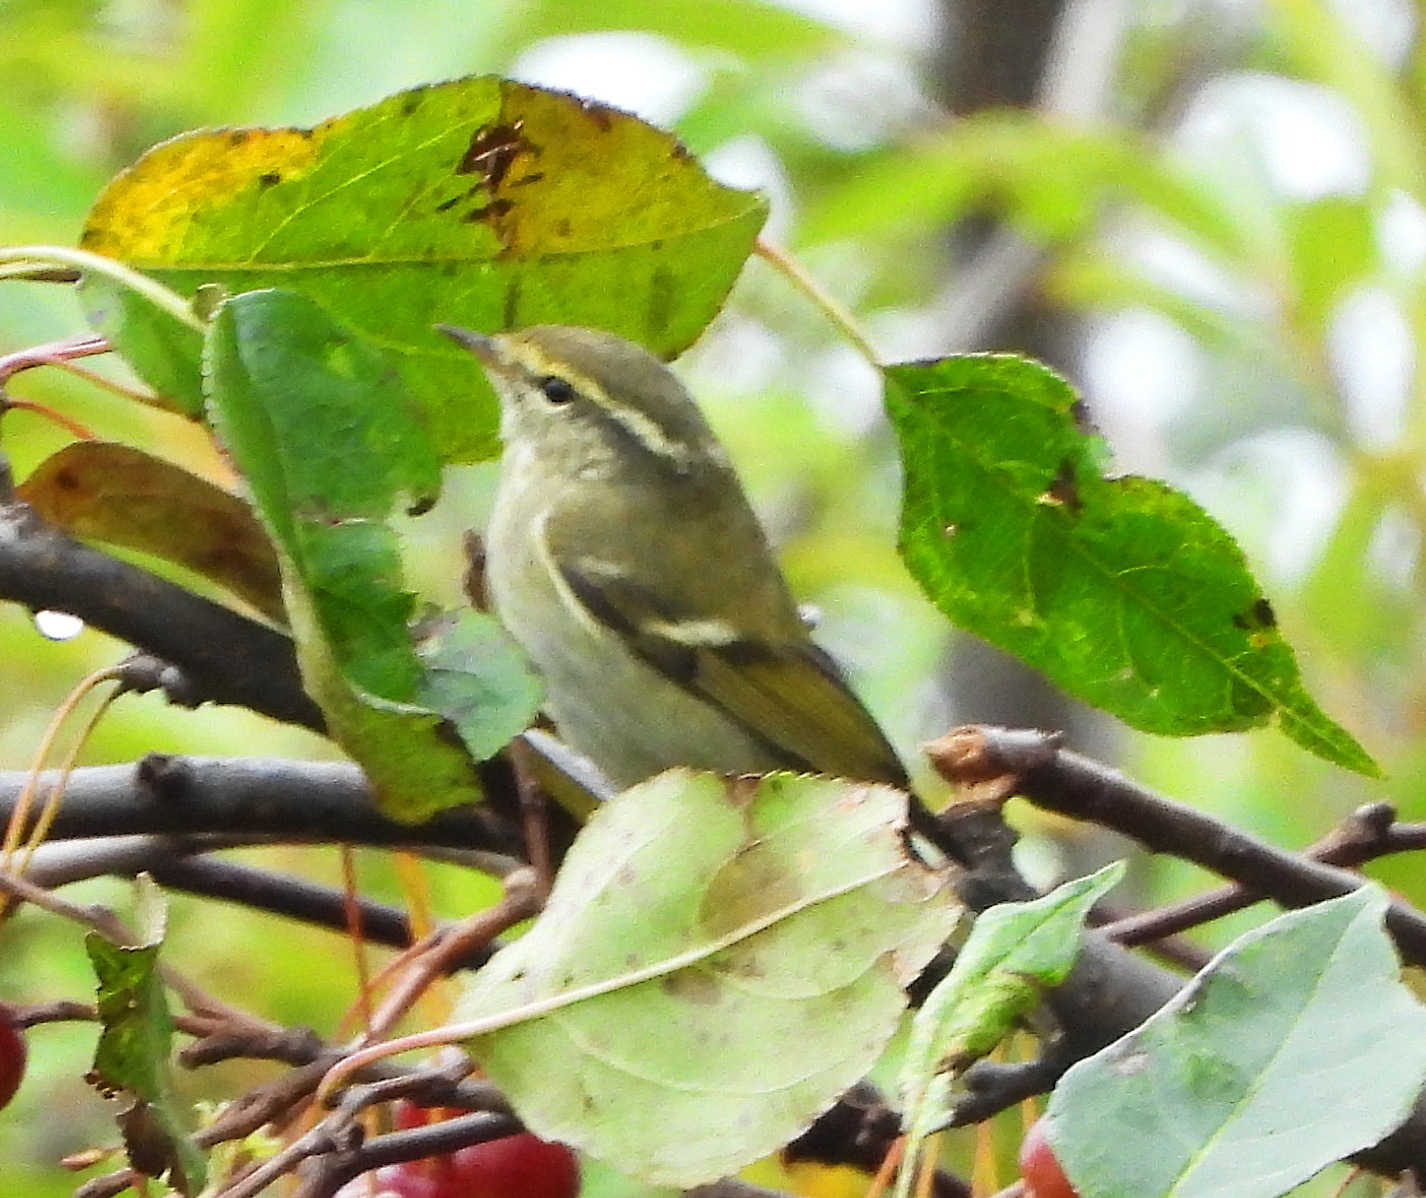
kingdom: Animalia
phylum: Chordata
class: Aves
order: Passeriformes
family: Phylloscopidae
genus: Phylloscopus
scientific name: Phylloscopus inornatus
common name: Yellow-browed warbler
